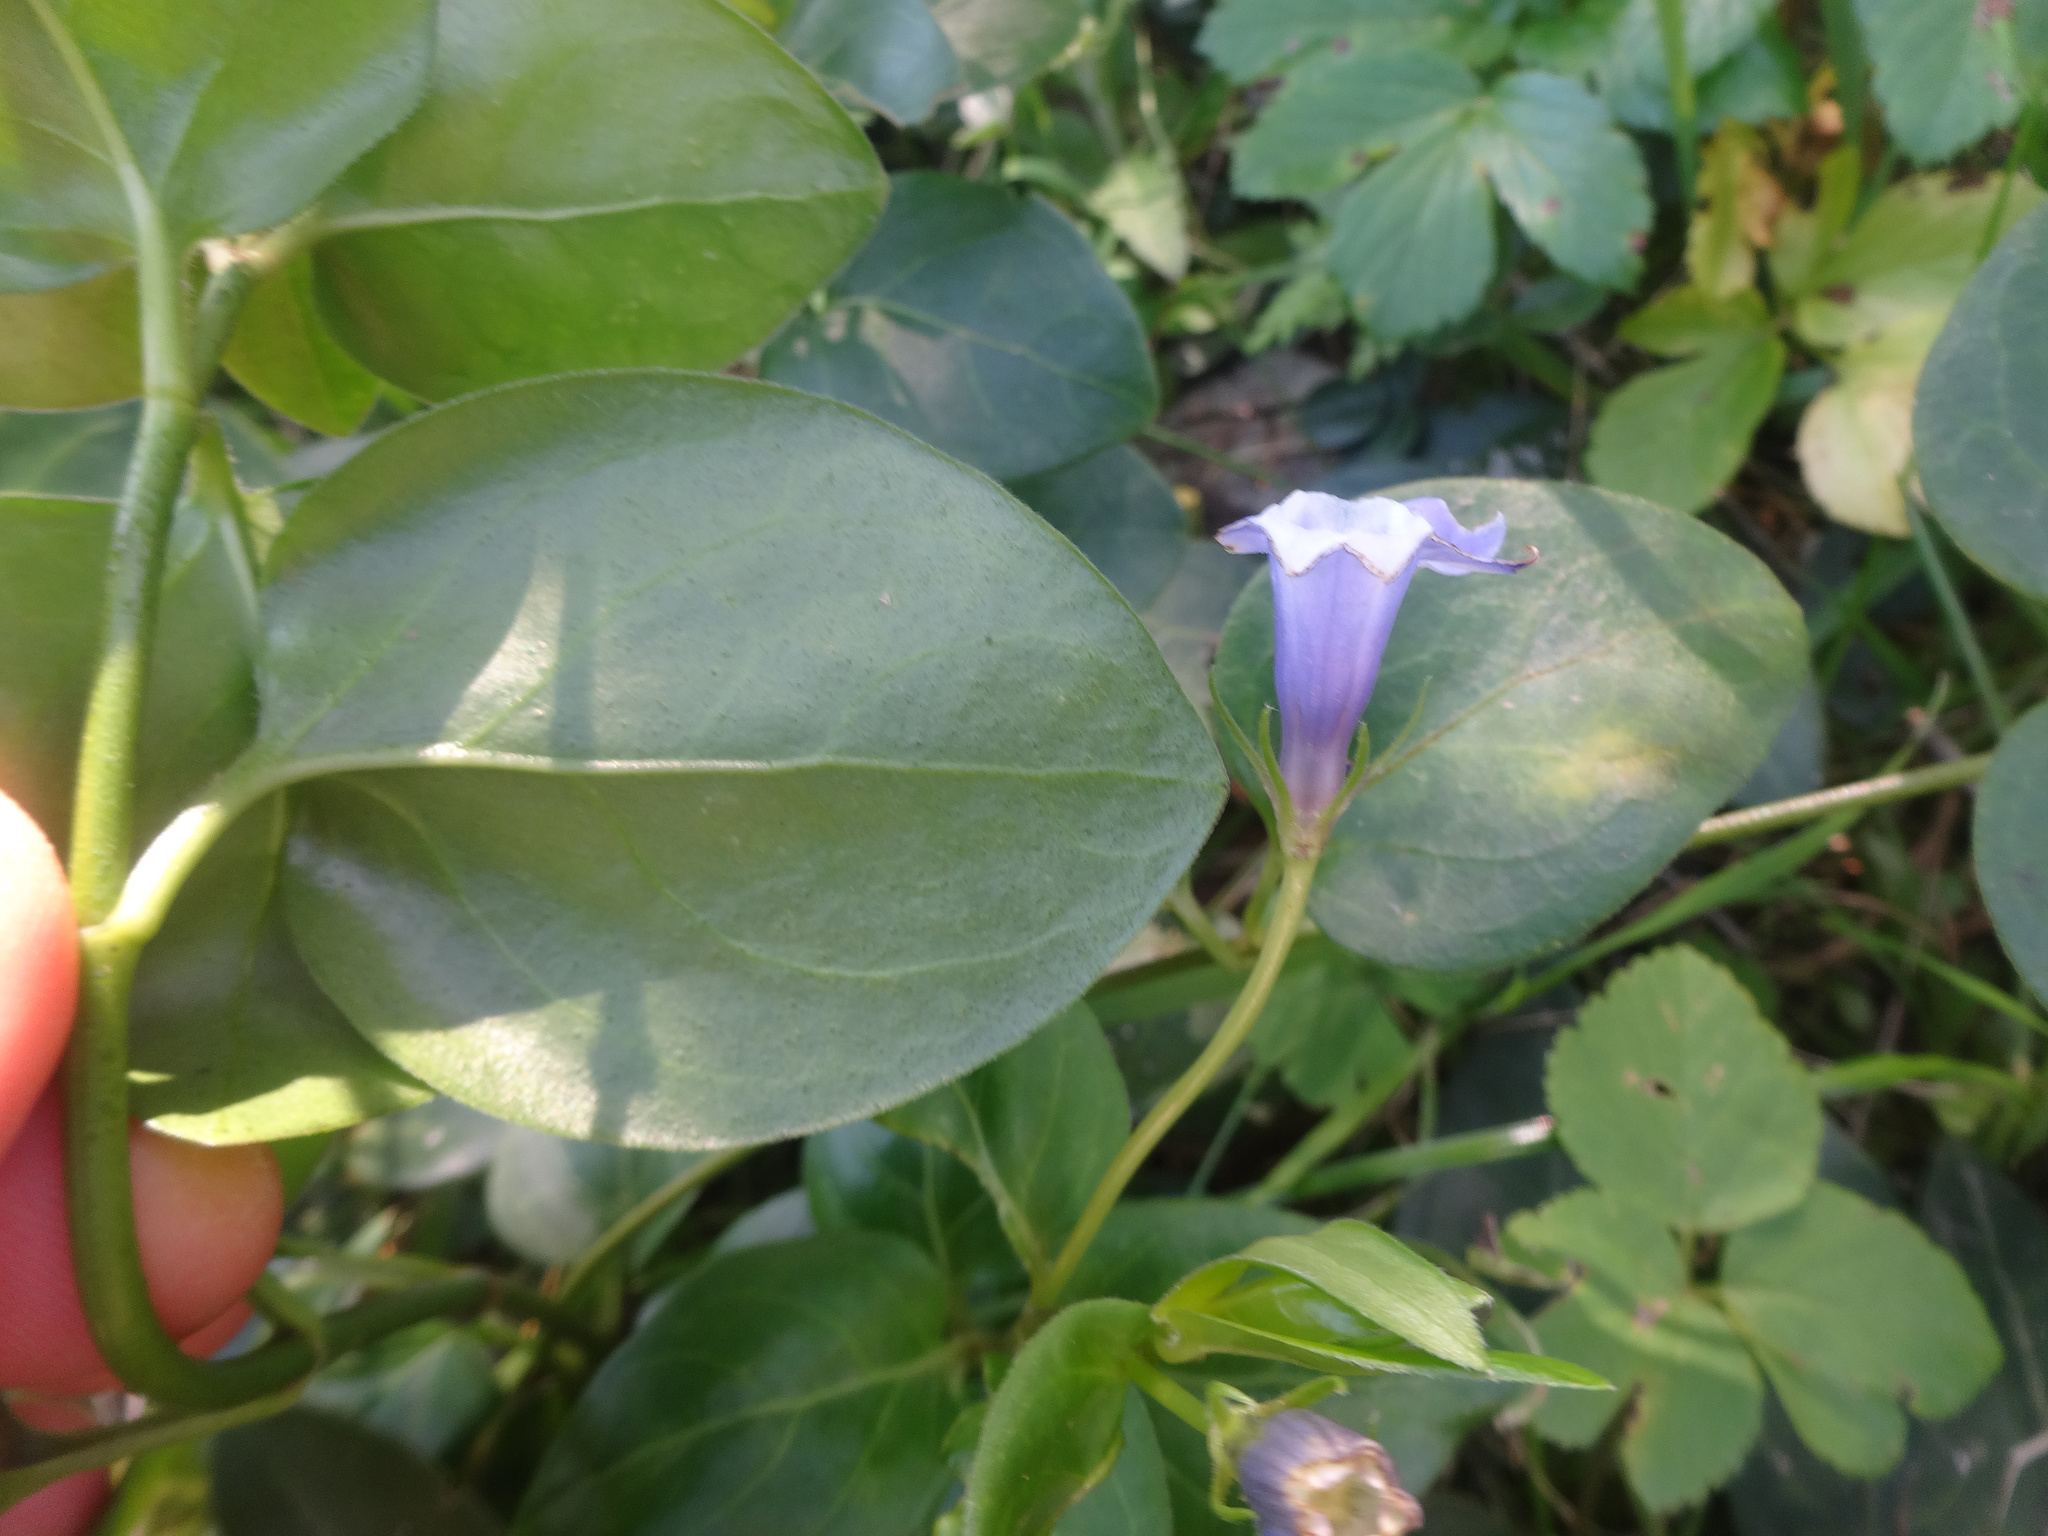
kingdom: Plantae
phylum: Tracheophyta
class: Magnoliopsida
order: Gentianales
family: Apocynaceae
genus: Vinca
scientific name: Vinca major
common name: Greater periwinkle
